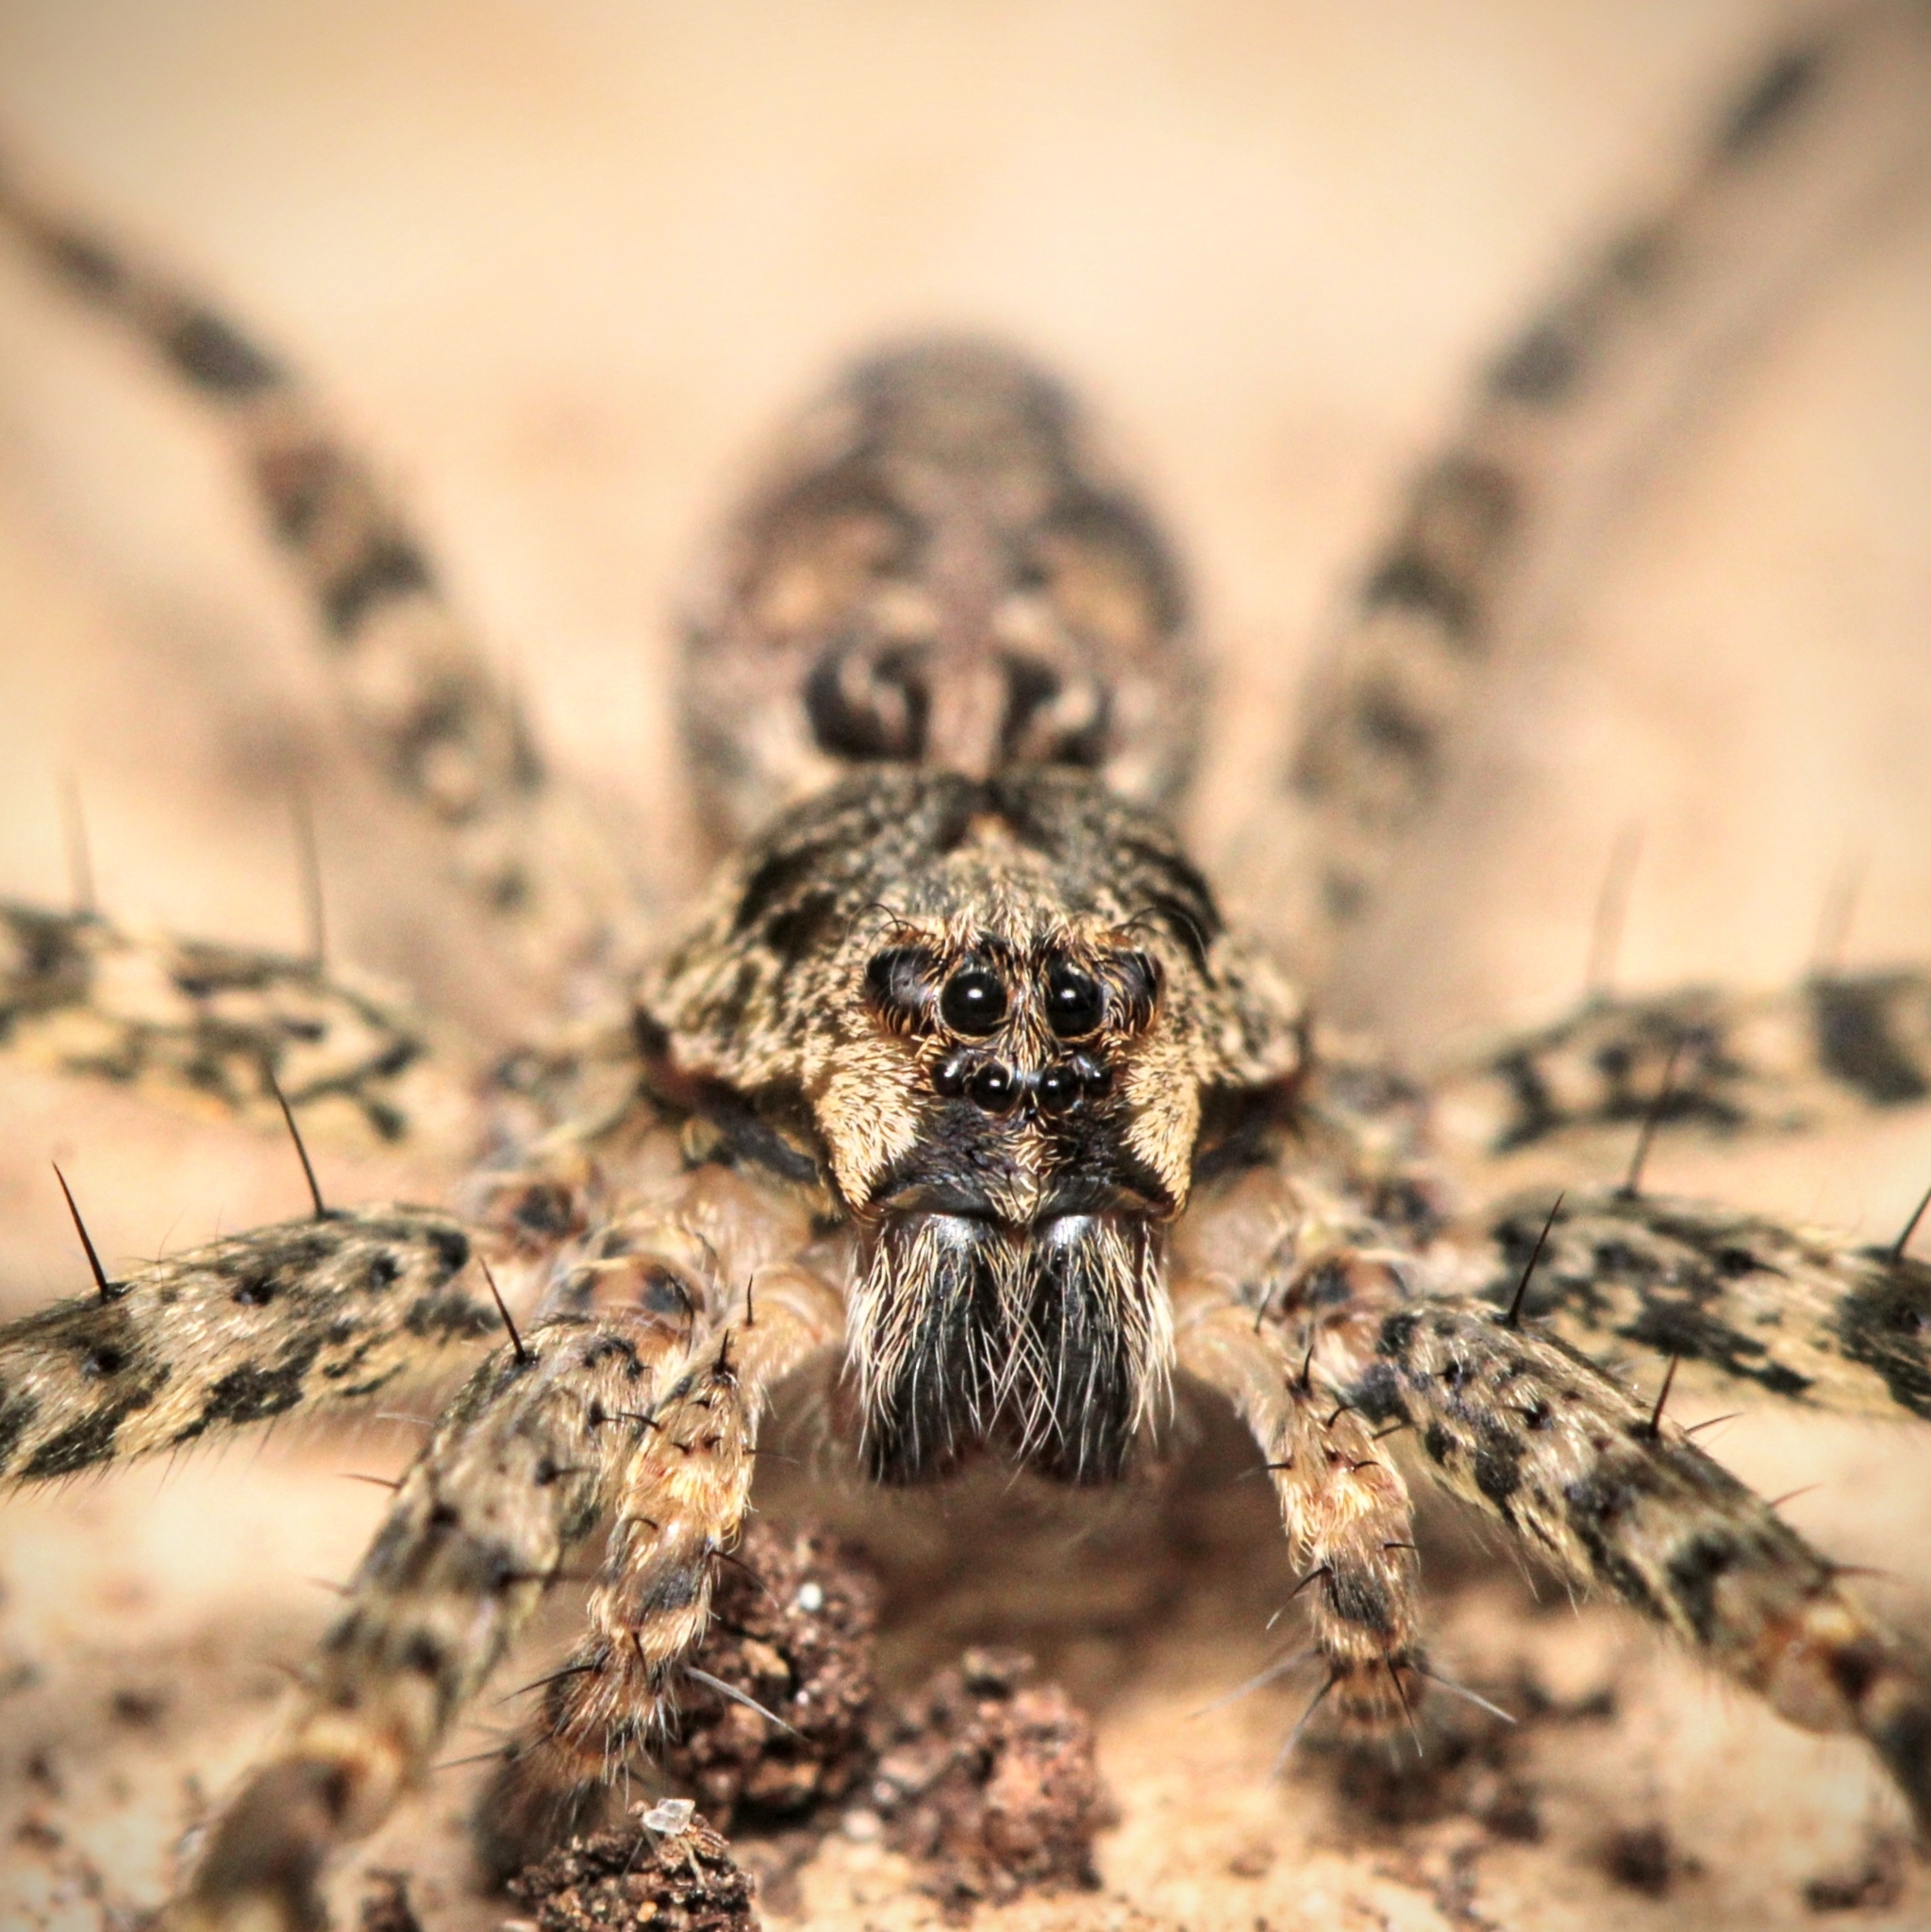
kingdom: Animalia
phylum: Arthropoda
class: Arachnida
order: Araneae
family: Pisauridae
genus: Dolomedes
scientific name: Dolomedes tenebrosus
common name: Dark fishing spider
